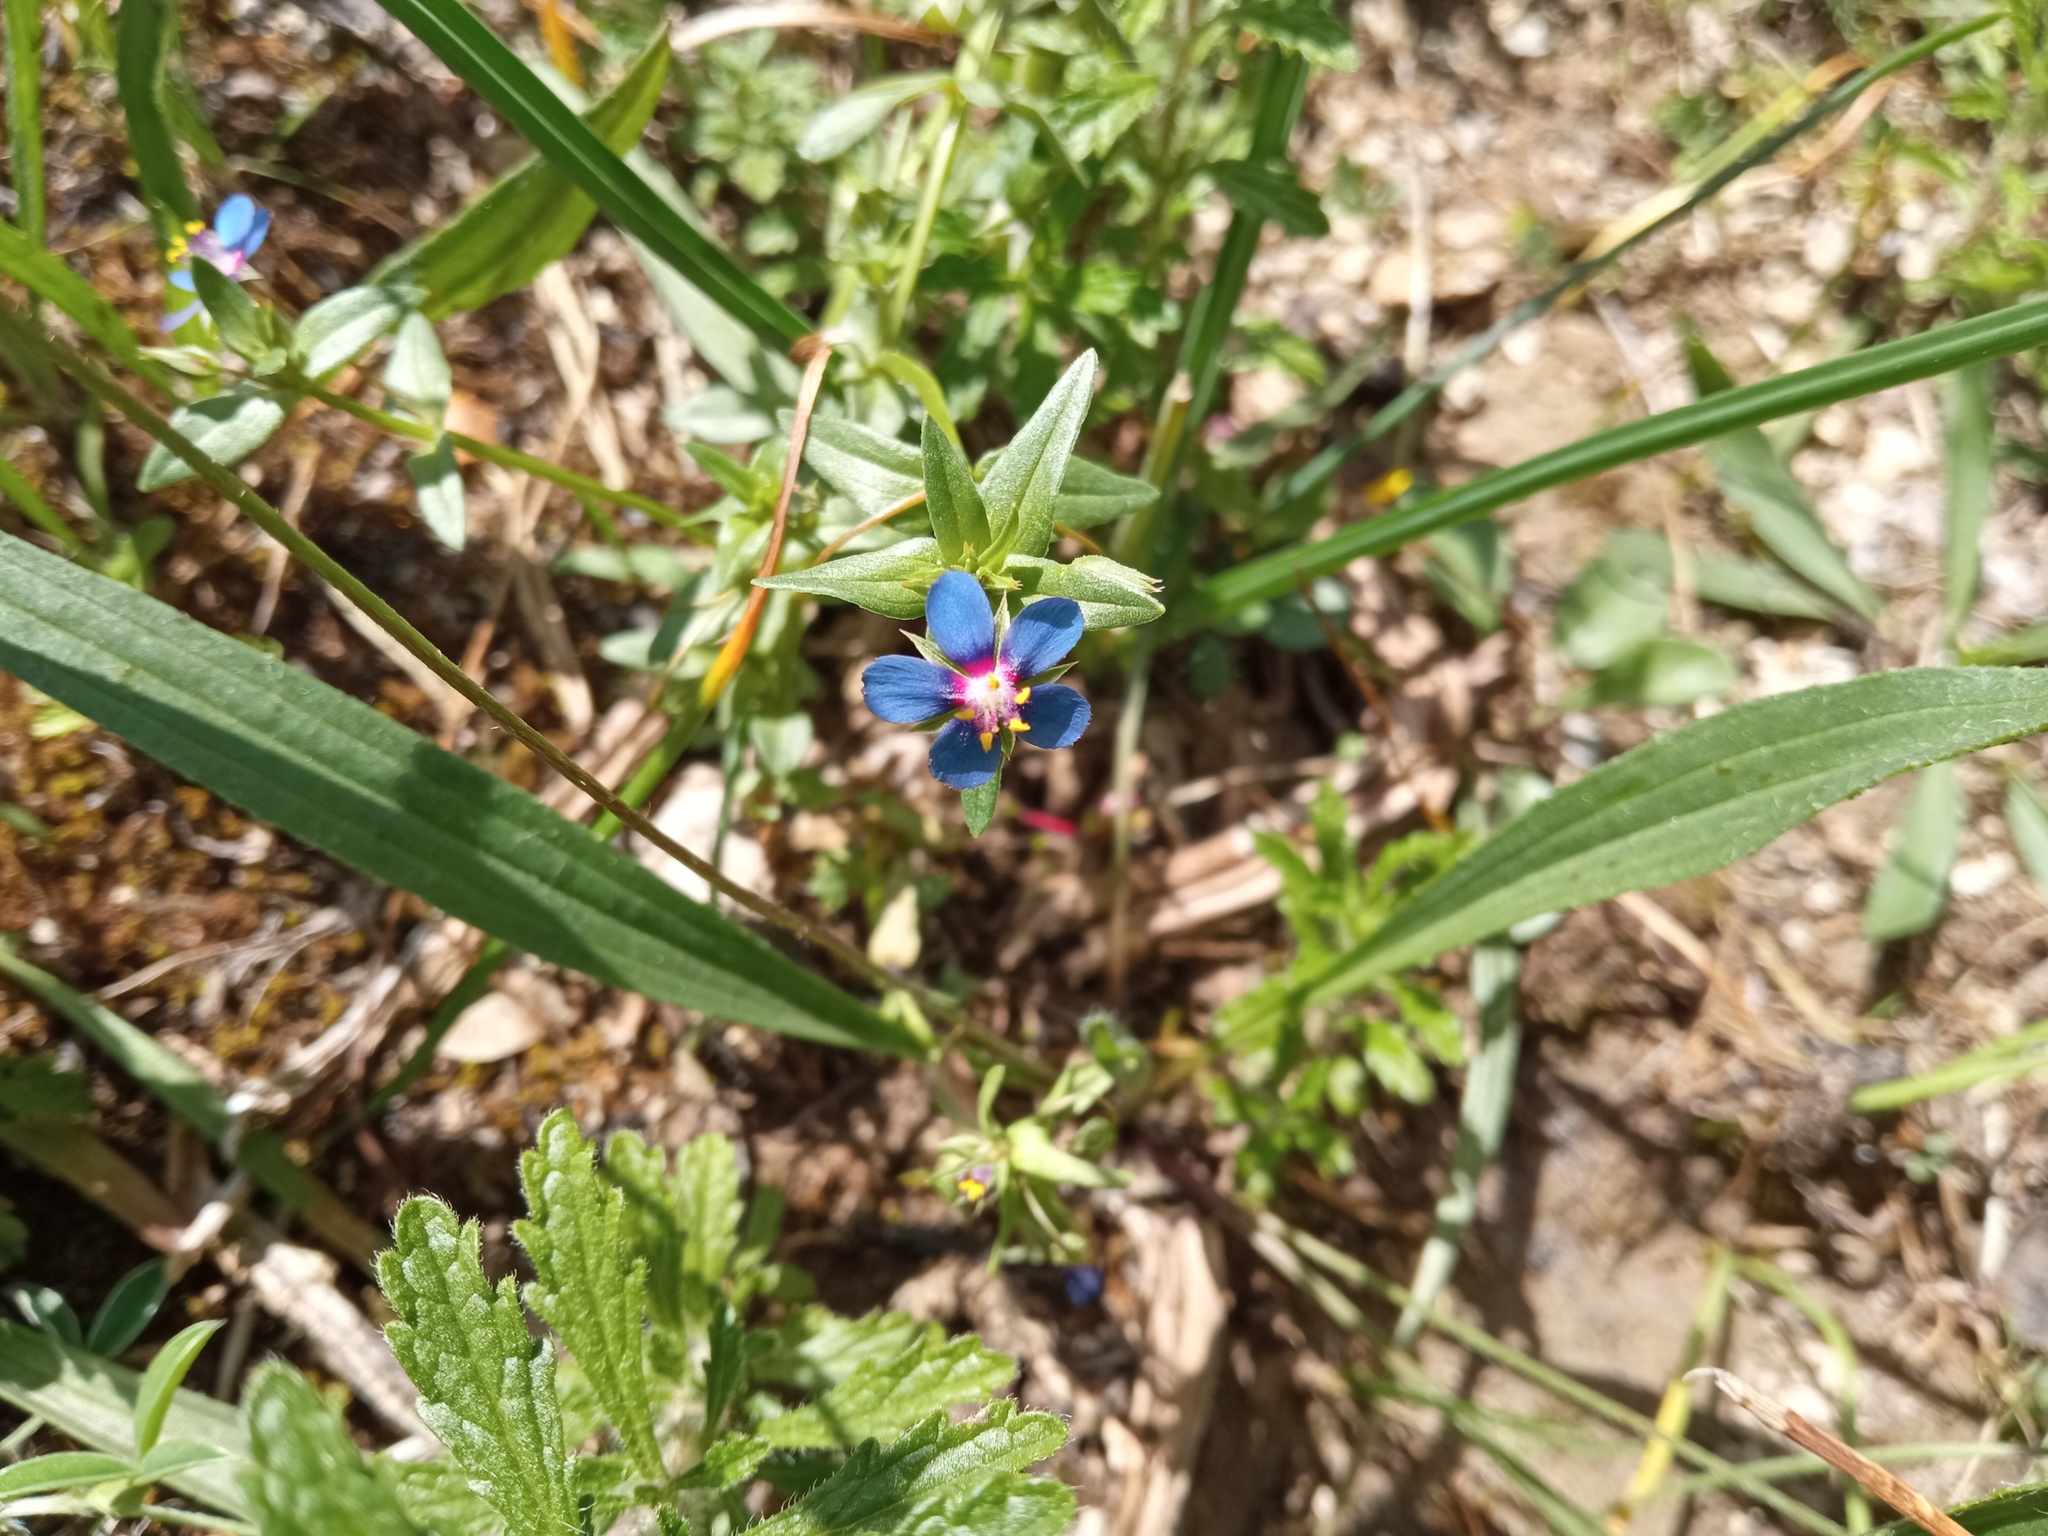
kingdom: Plantae
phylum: Tracheophyta
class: Magnoliopsida
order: Ericales
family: Primulaceae
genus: Lysimachia
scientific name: Lysimachia foemina
